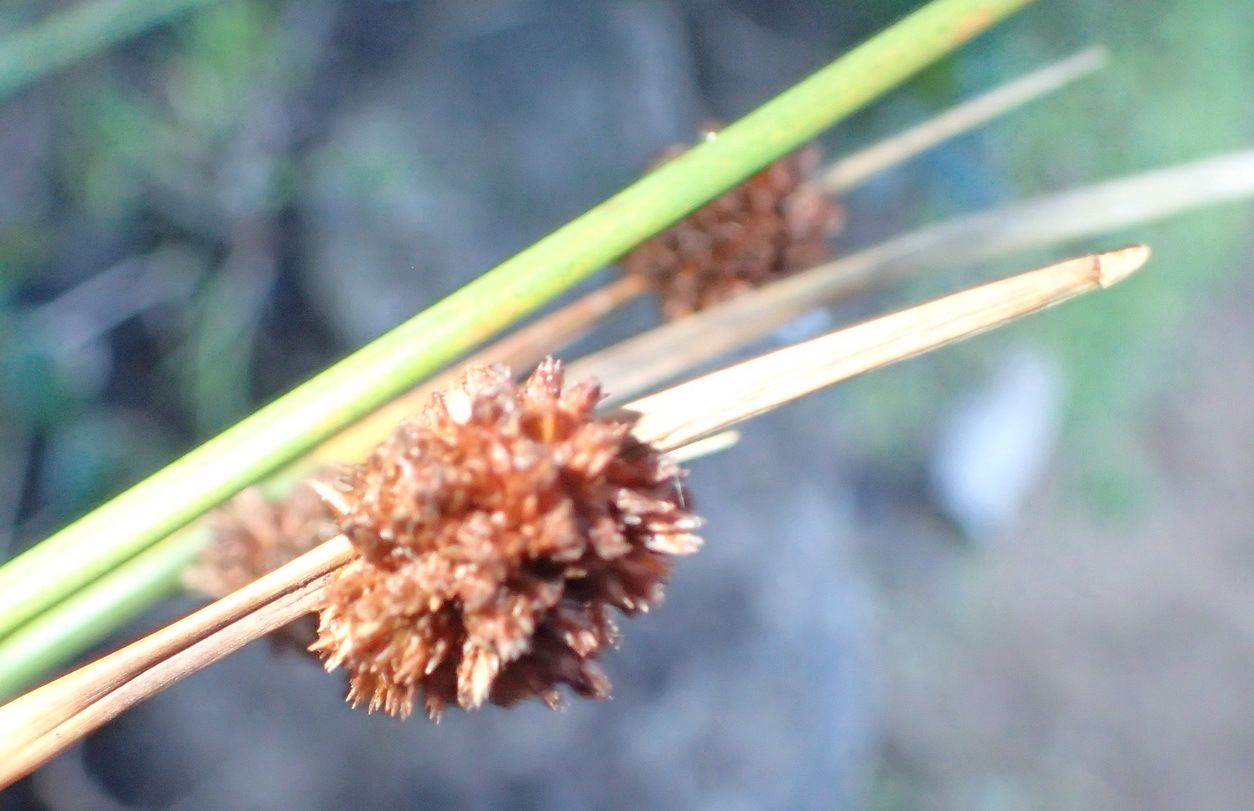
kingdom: Plantae
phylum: Tracheophyta
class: Liliopsida
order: Poales
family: Cyperaceae
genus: Ficinia
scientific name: Ficinia nodosa
